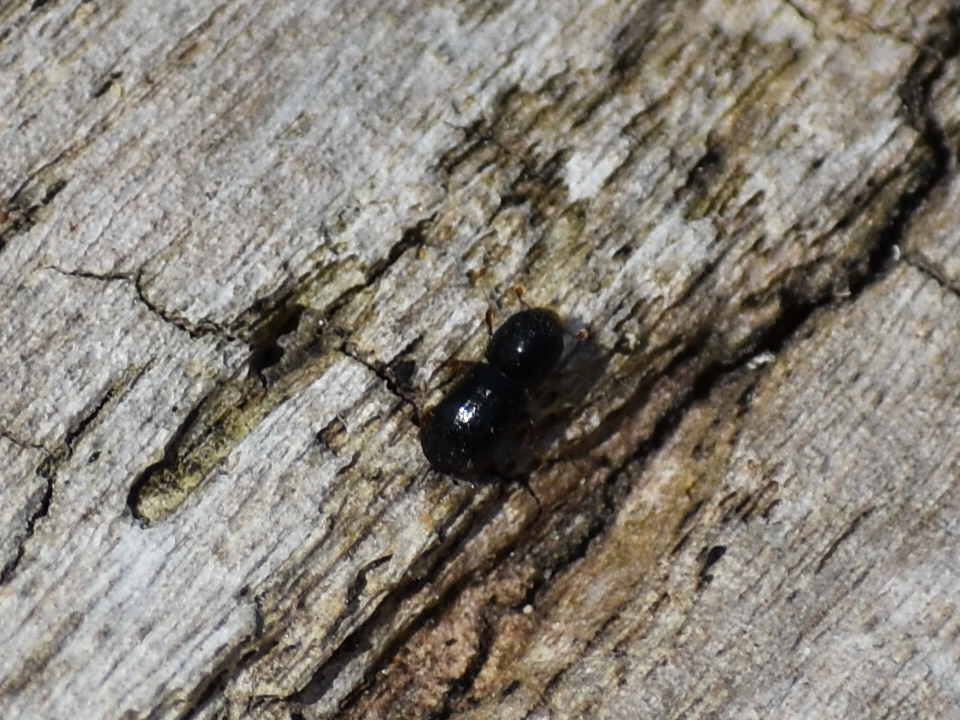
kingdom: Animalia
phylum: Arthropoda
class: Insecta
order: Coleoptera
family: Curculionidae
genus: Euwallacea
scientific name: Euwallacea validus
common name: Bark beetle
